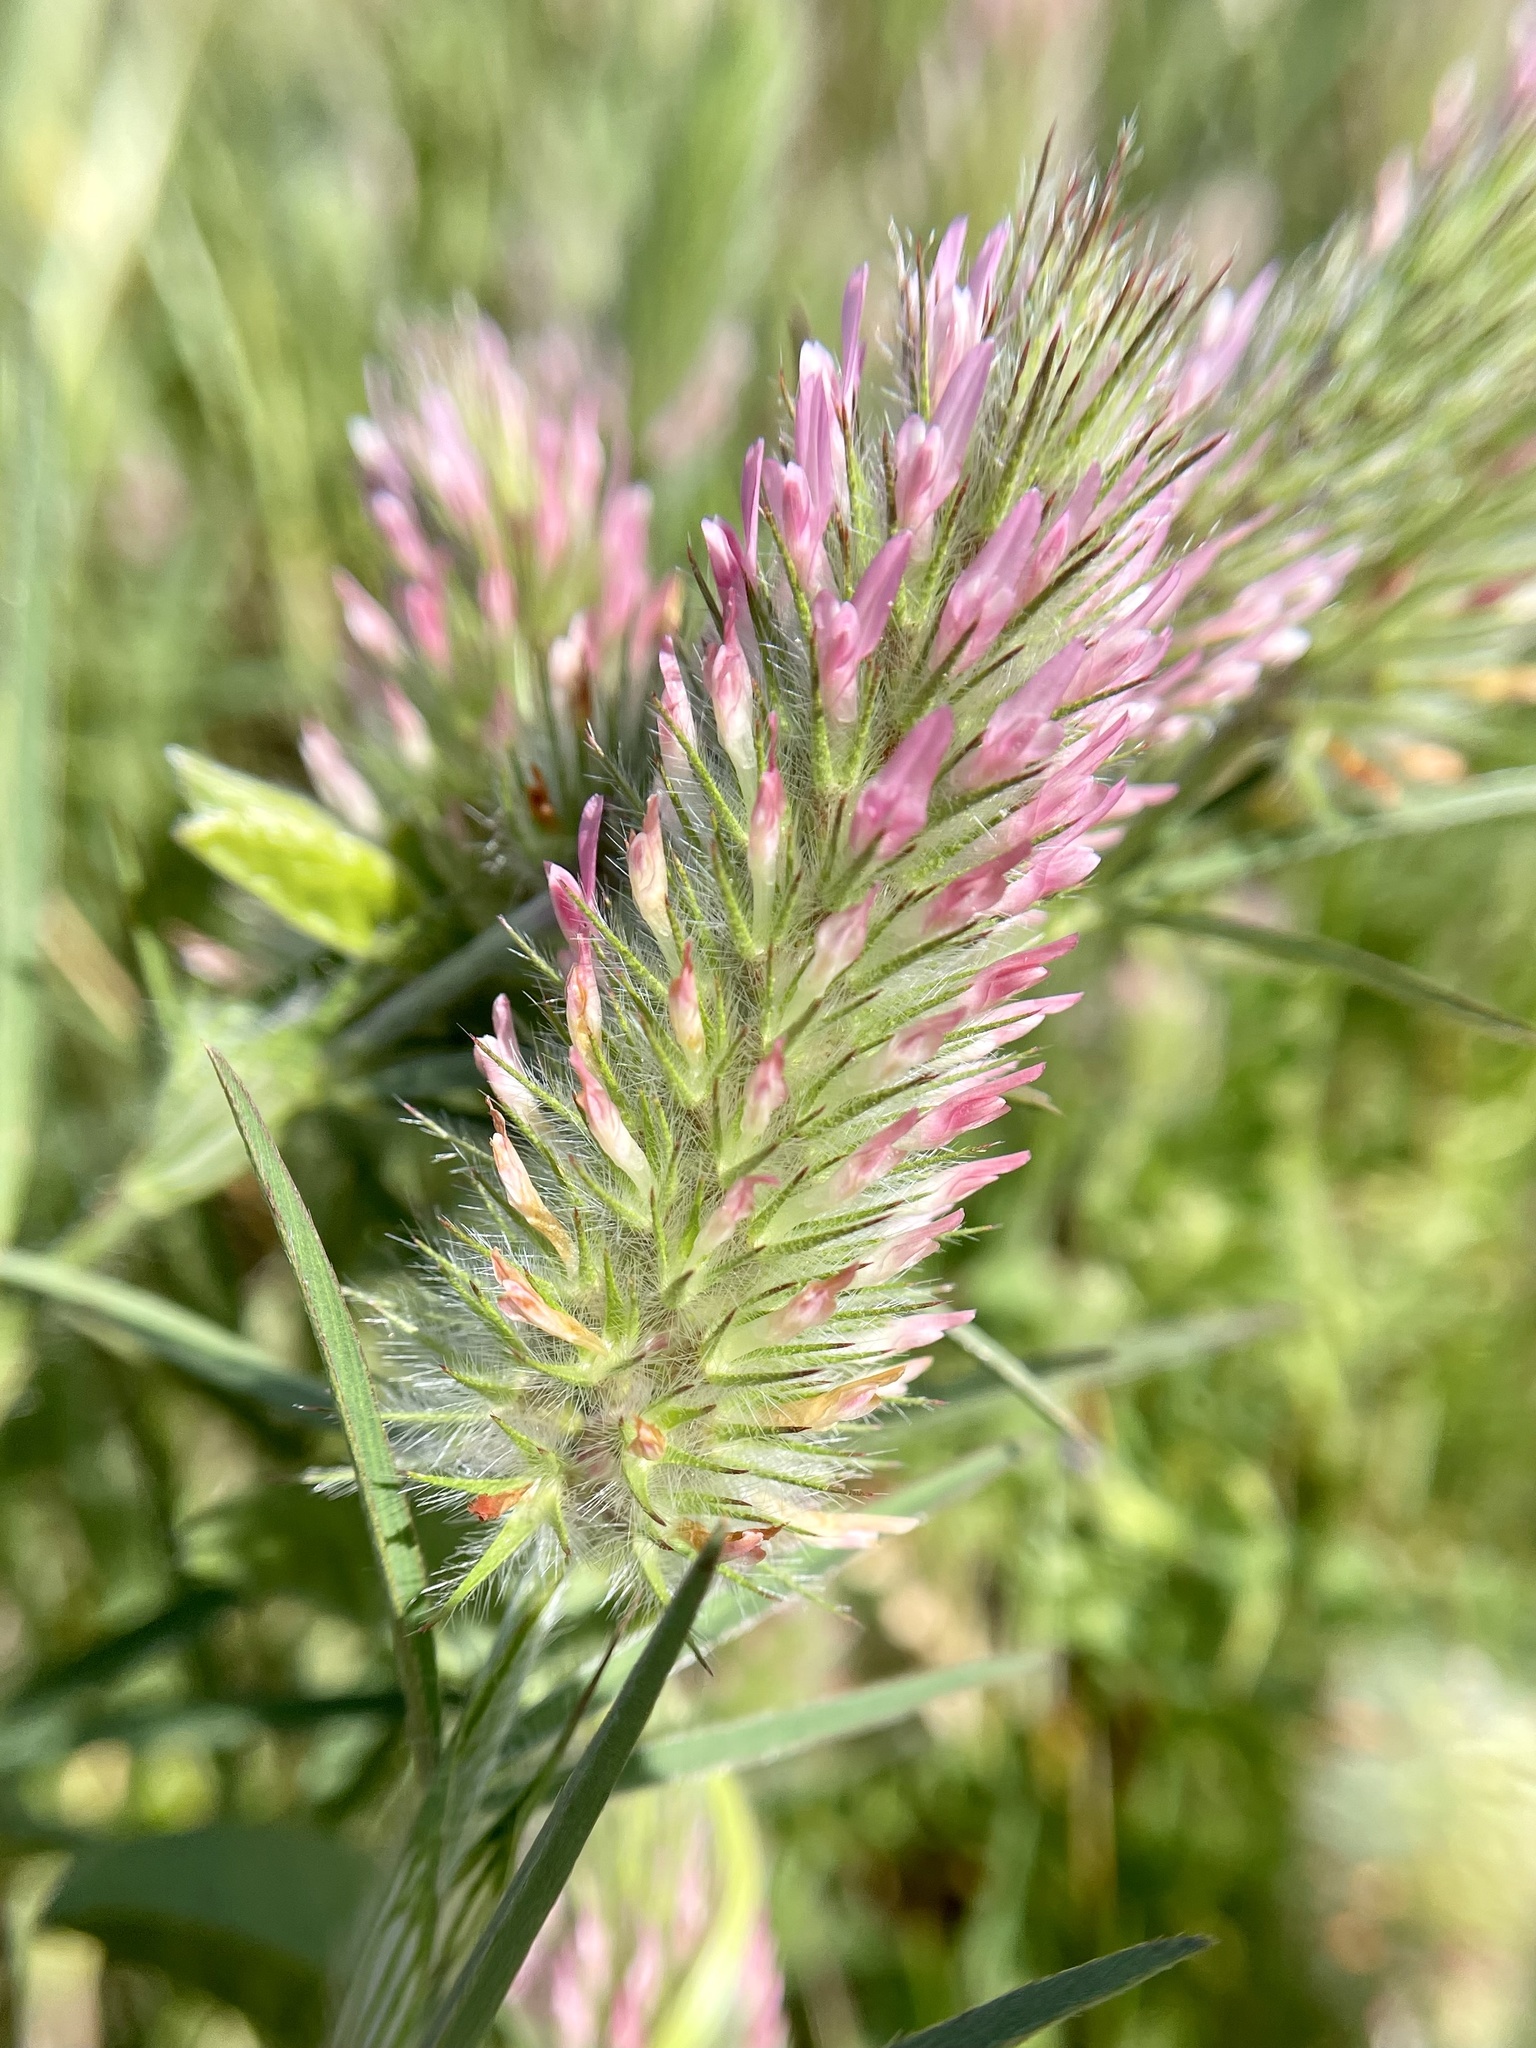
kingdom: Plantae
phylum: Tracheophyta
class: Magnoliopsida
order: Fabales
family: Fabaceae
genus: Trifolium
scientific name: Trifolium angustifolium
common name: Narrow clover
